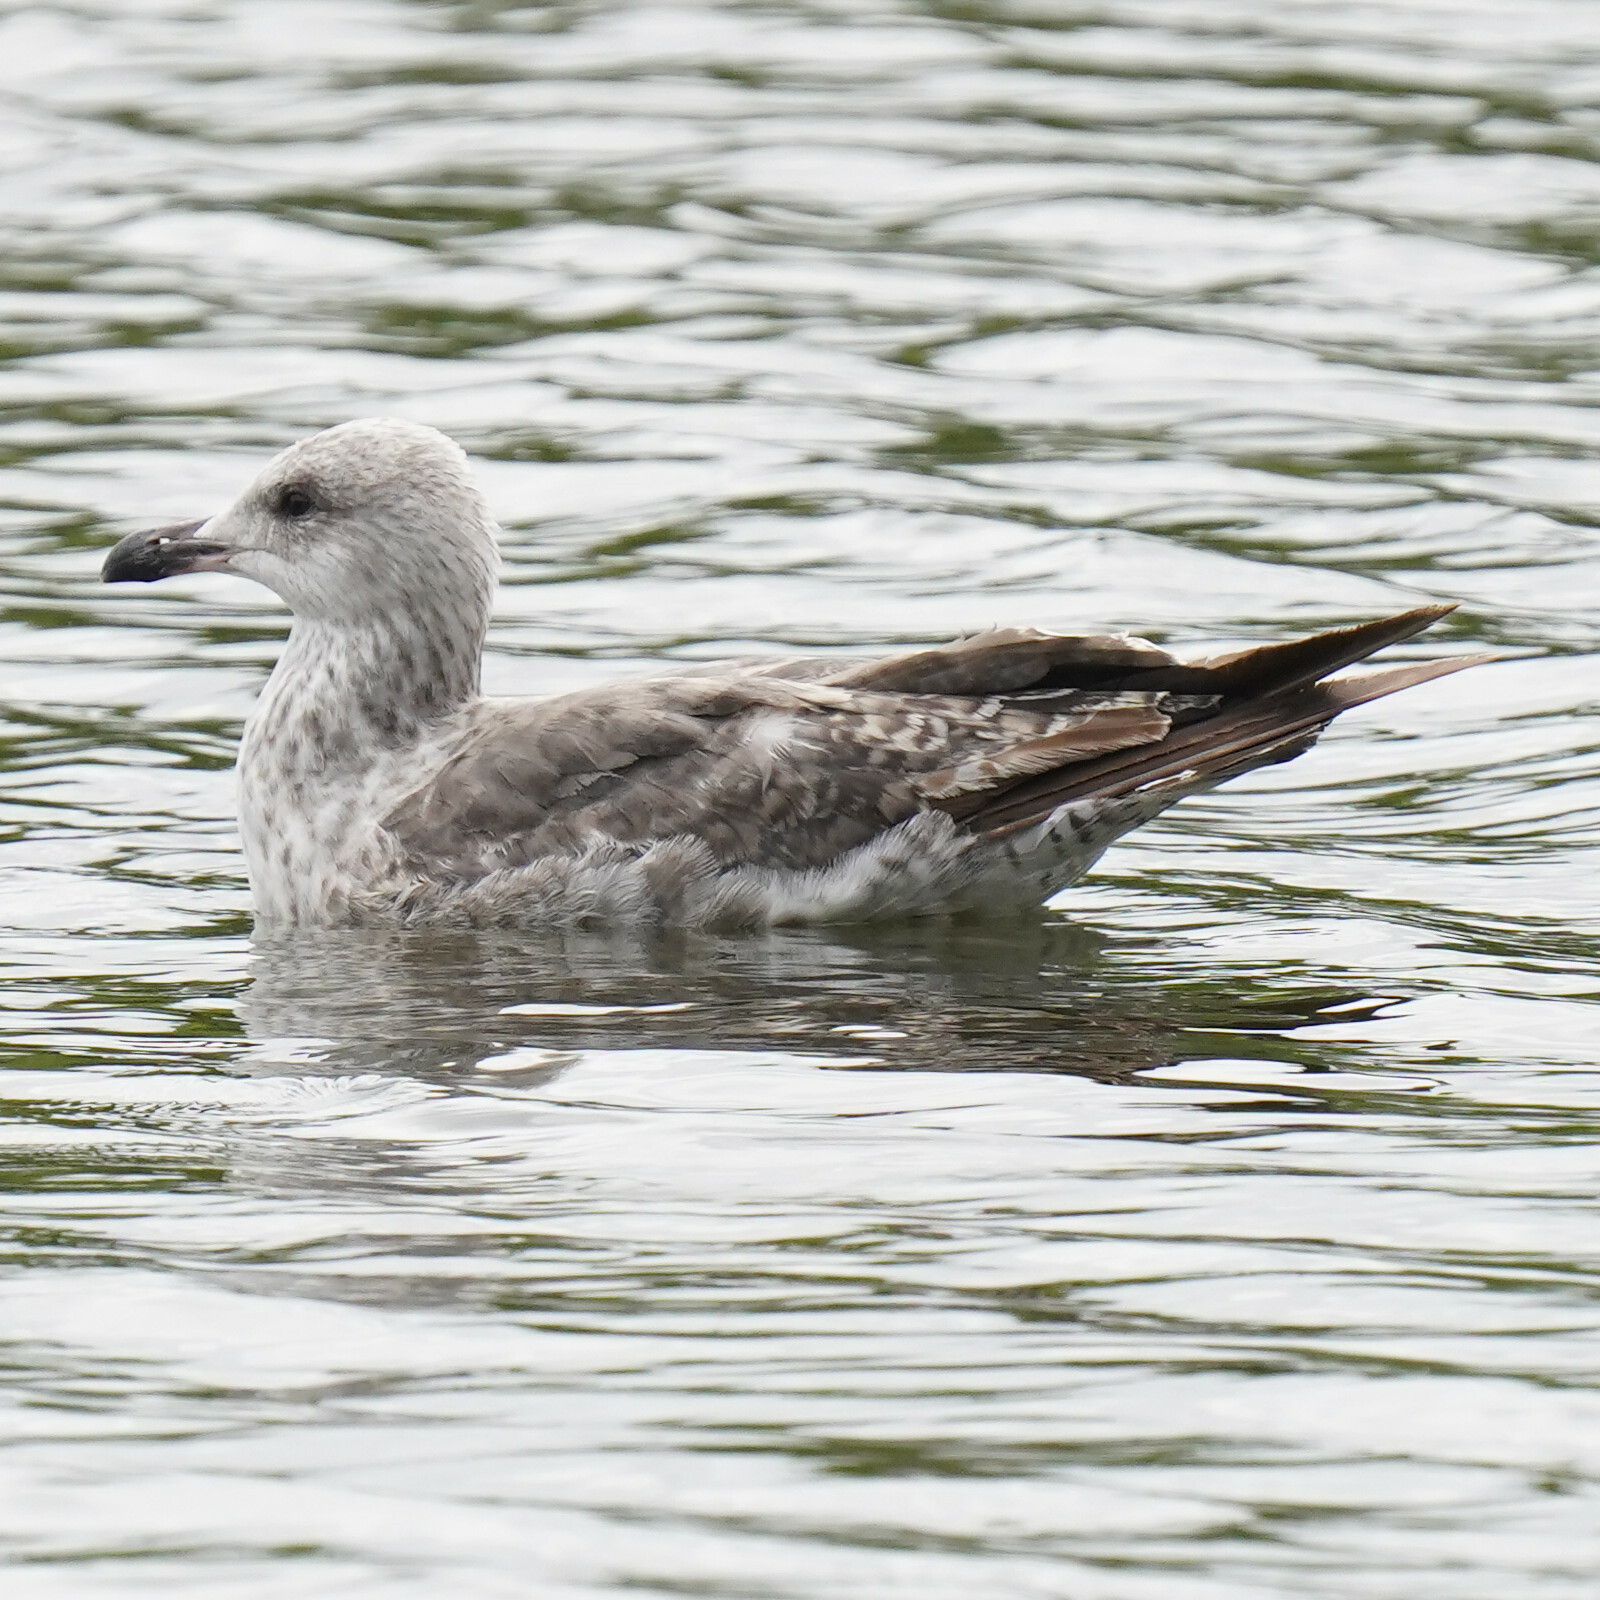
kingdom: Animalia
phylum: Chordata
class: Aves
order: Charadriiformes
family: Laridae
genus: Larus
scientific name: Larus fuscus
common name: Lesser black-backed gull
